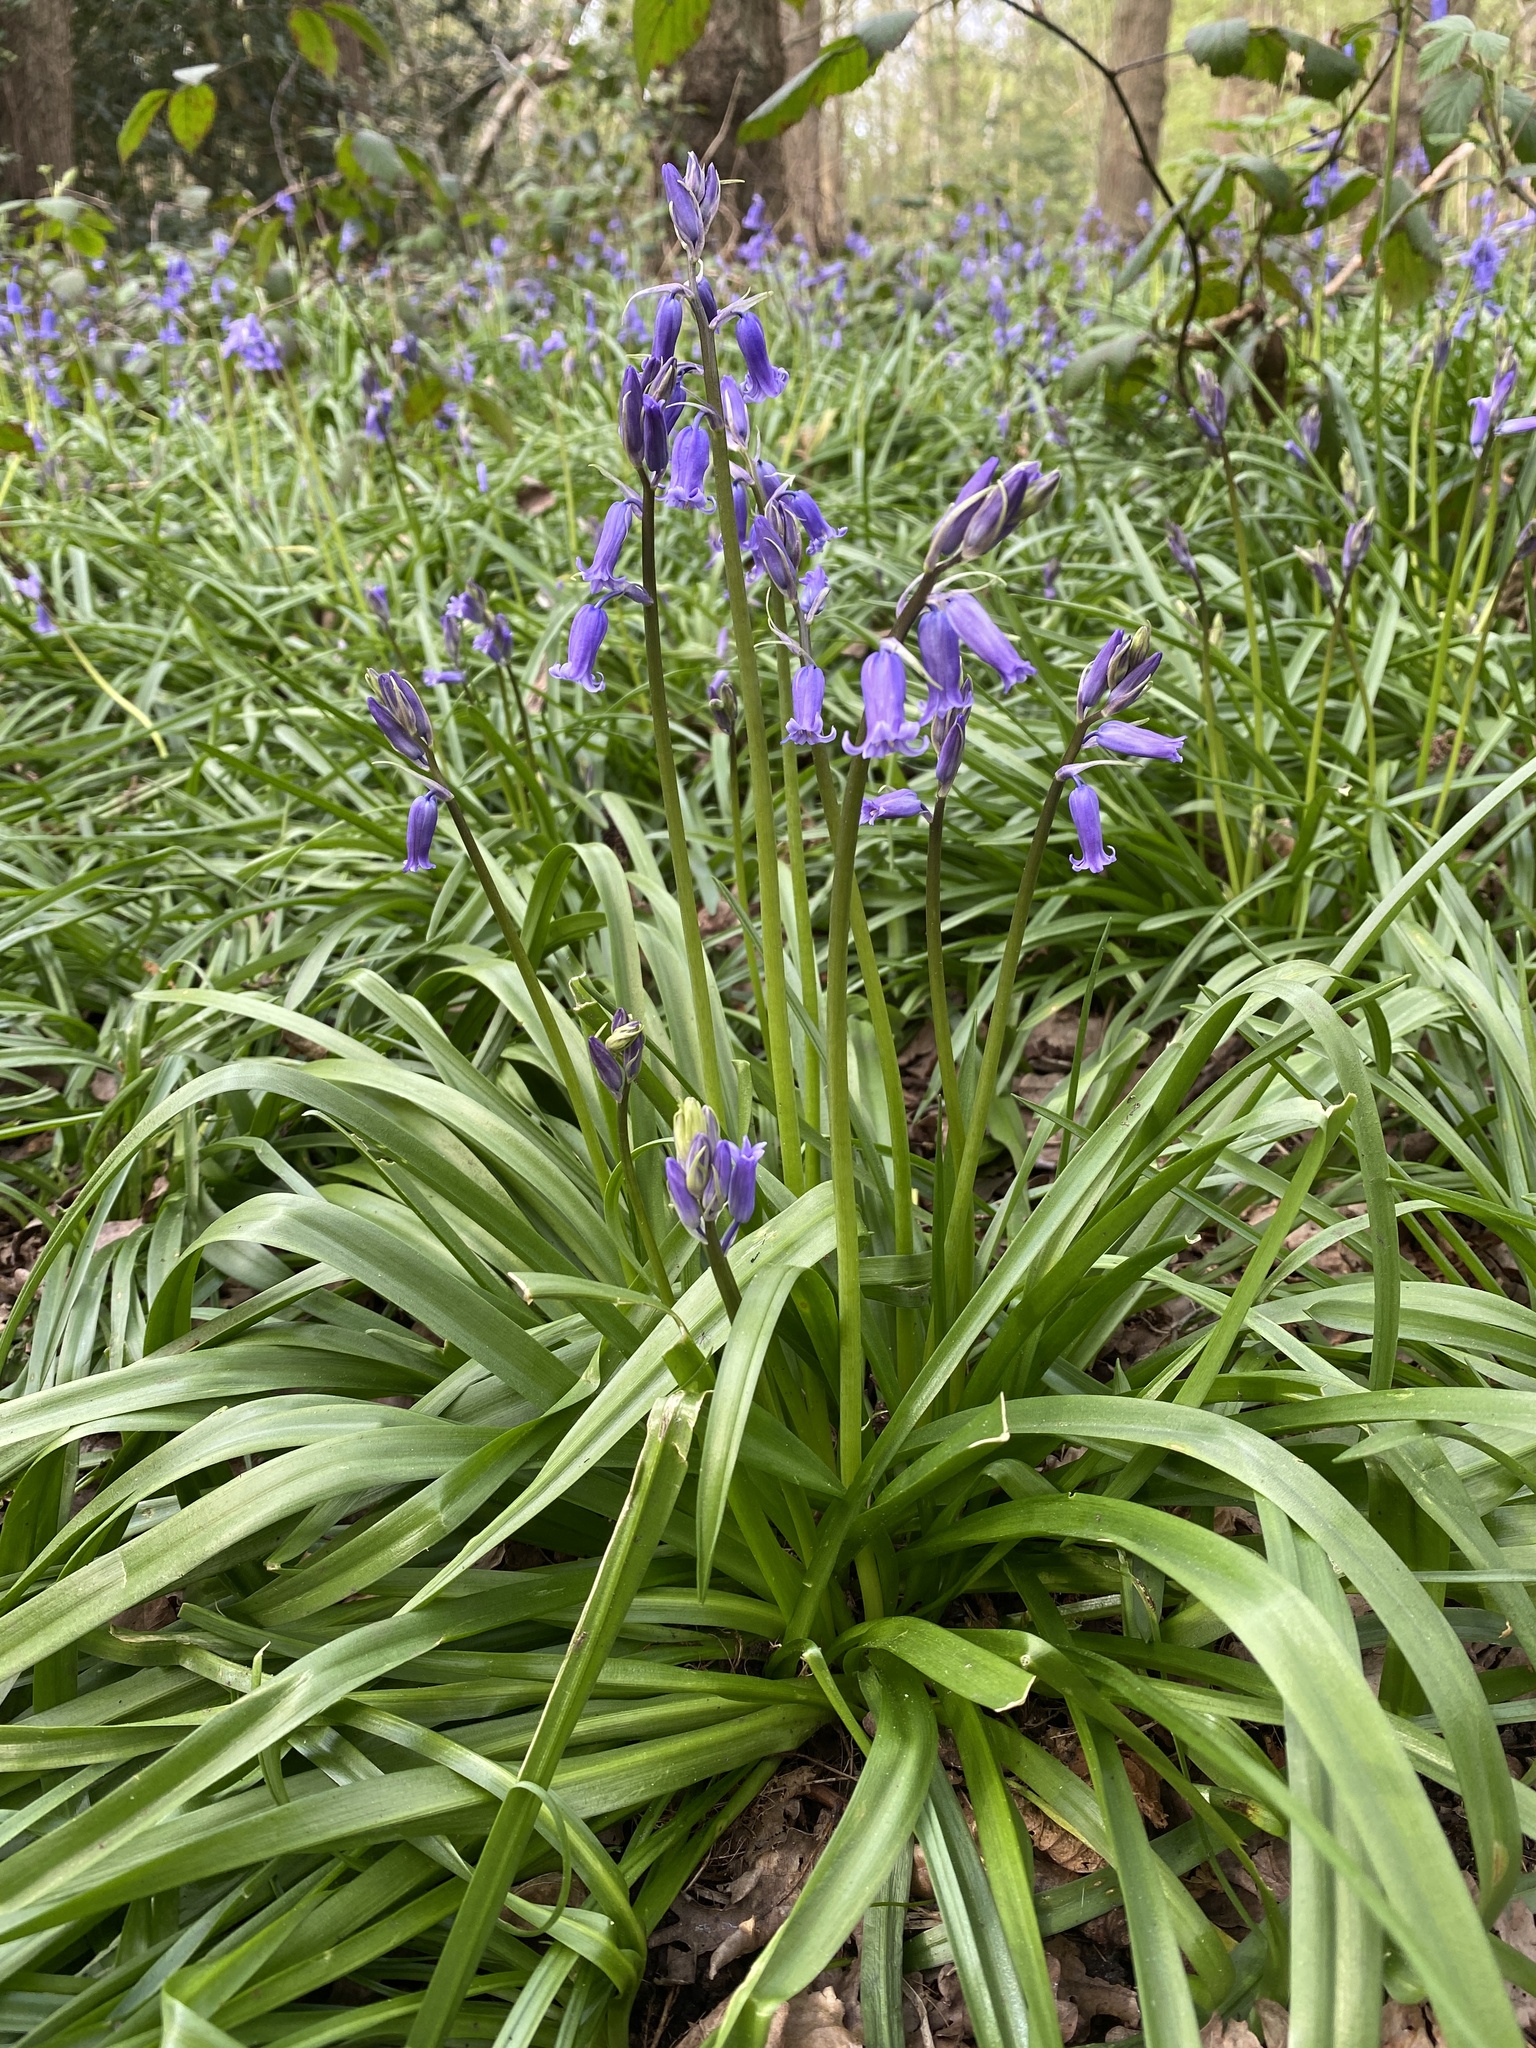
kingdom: Plantae
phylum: Tracheophyta
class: Liliopsida
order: Asparagales
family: Asparagaceae
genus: Hyacinthoides
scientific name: Hyacinthoides non-scripta
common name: Bluebell
